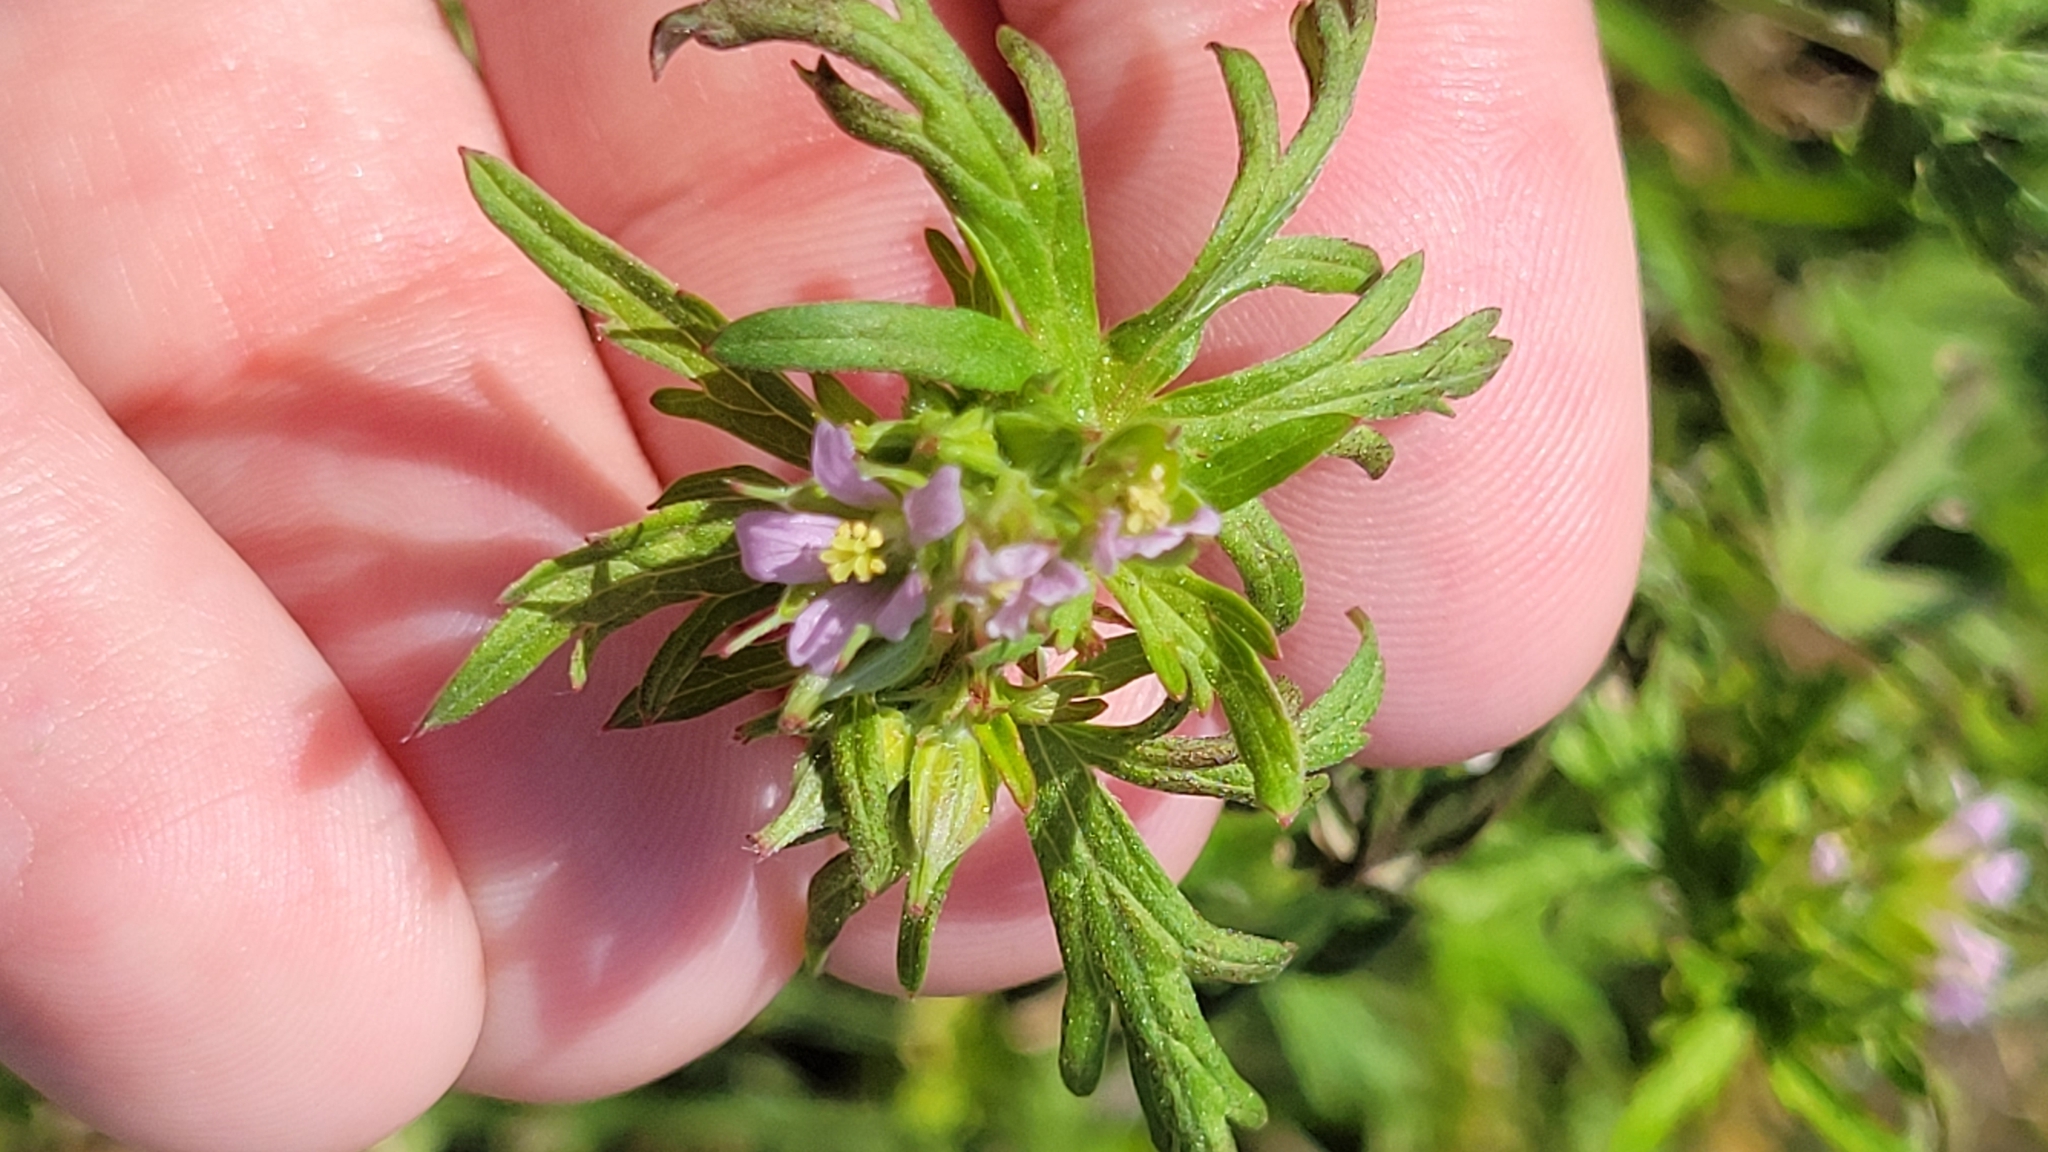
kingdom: Plantae
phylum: Tracheophyta
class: Magnoliopsida
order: Geraniales
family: Geraniaceae
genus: Geranium
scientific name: Geranium carolinianum
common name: Carolina crane's-bill
